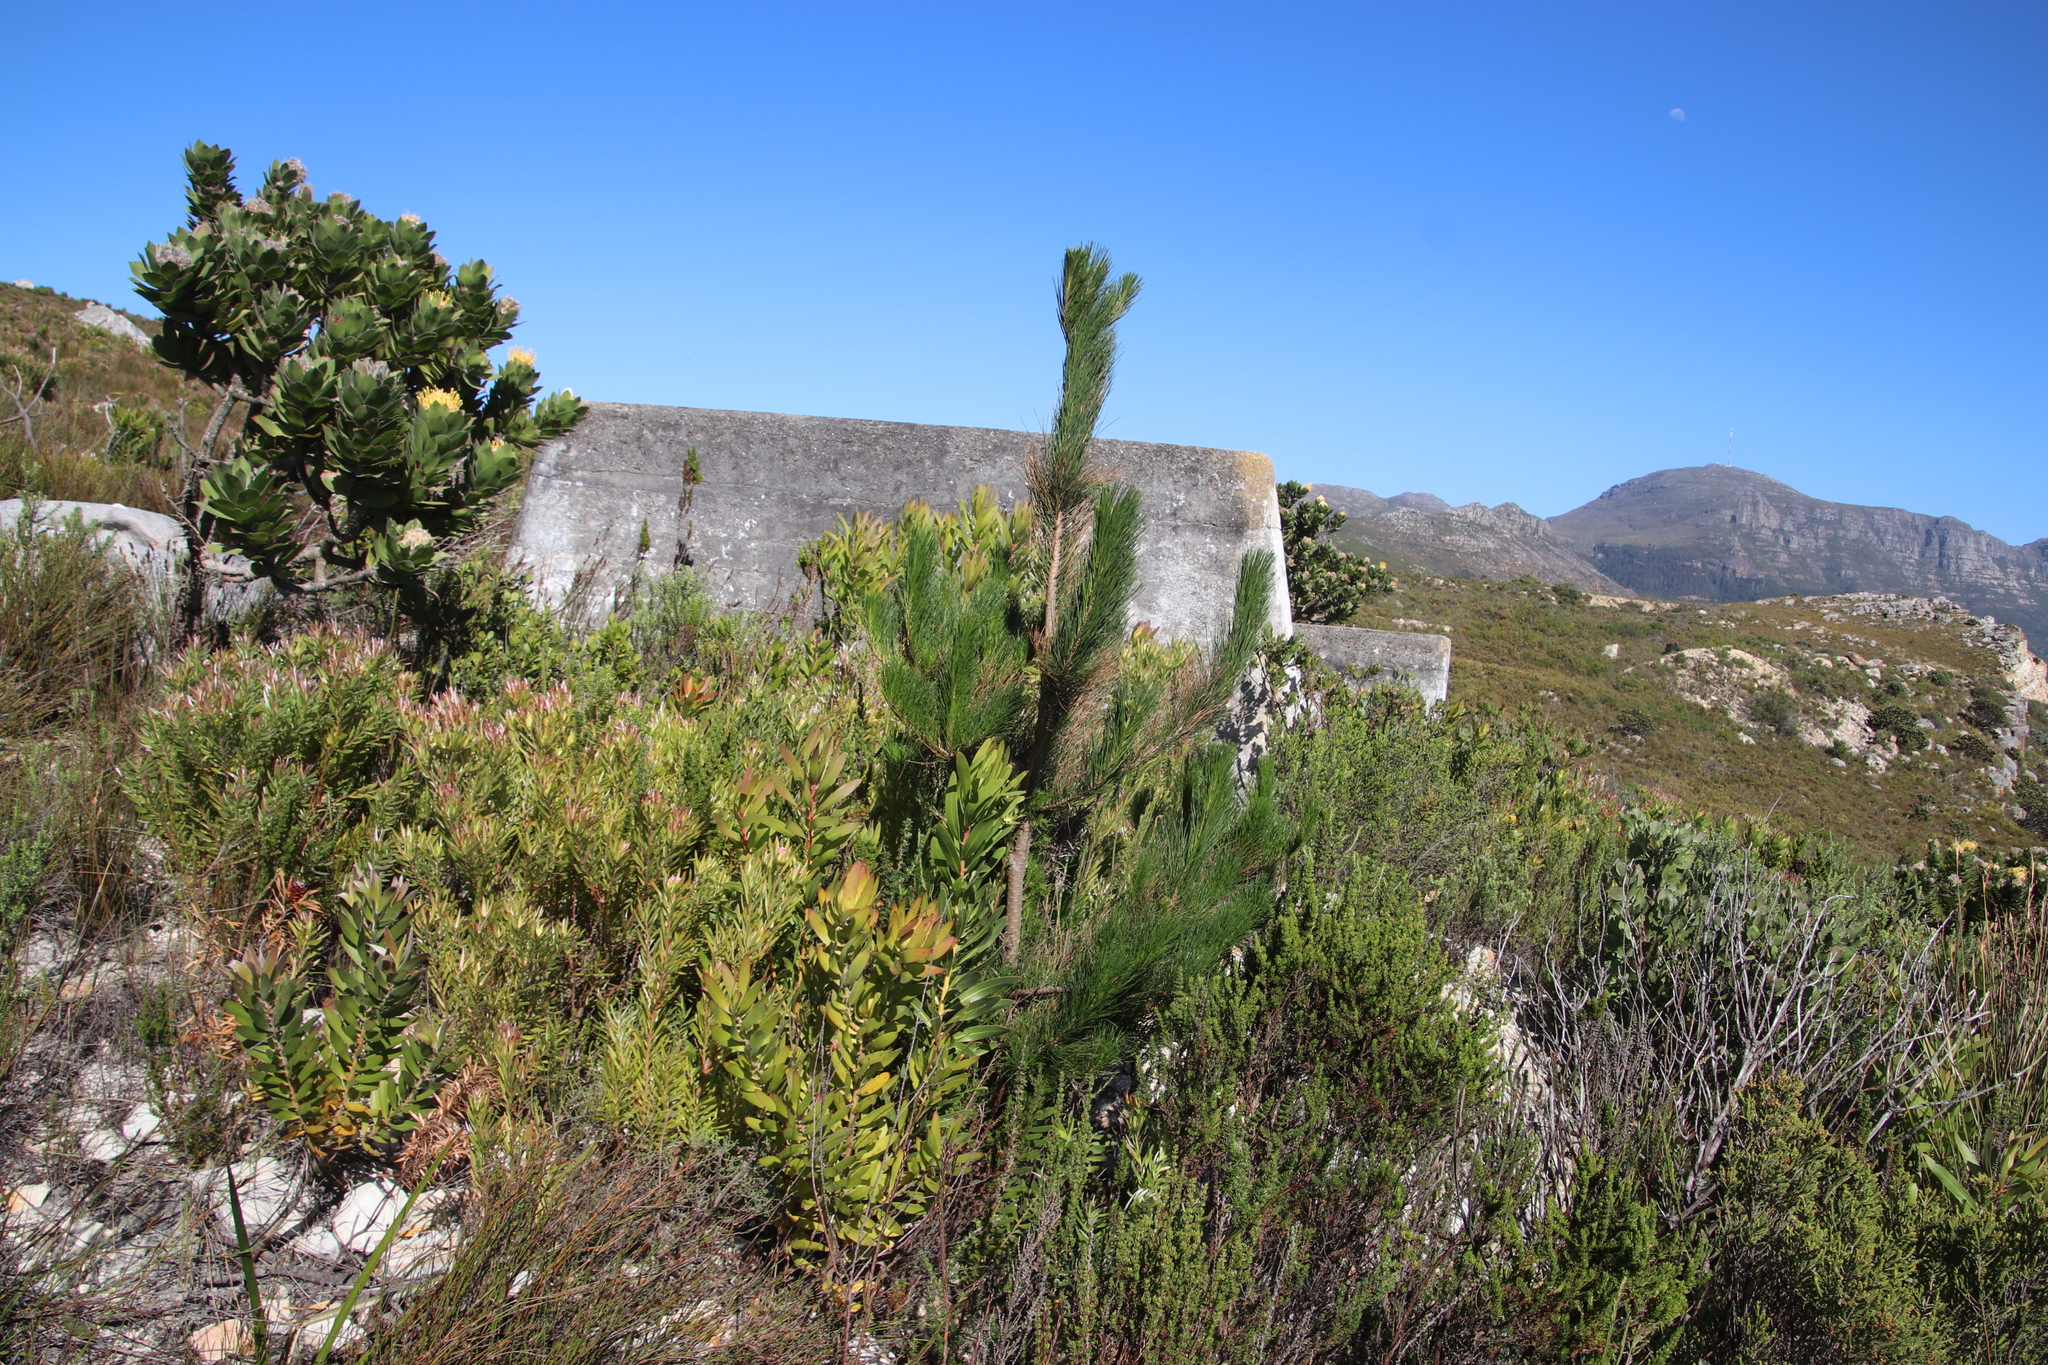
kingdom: Plantae
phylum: Tracheophyta
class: Pinopsida
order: Pinales
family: Pinaceae
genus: Pinus
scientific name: Pinus radiata
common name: Monterey pine
